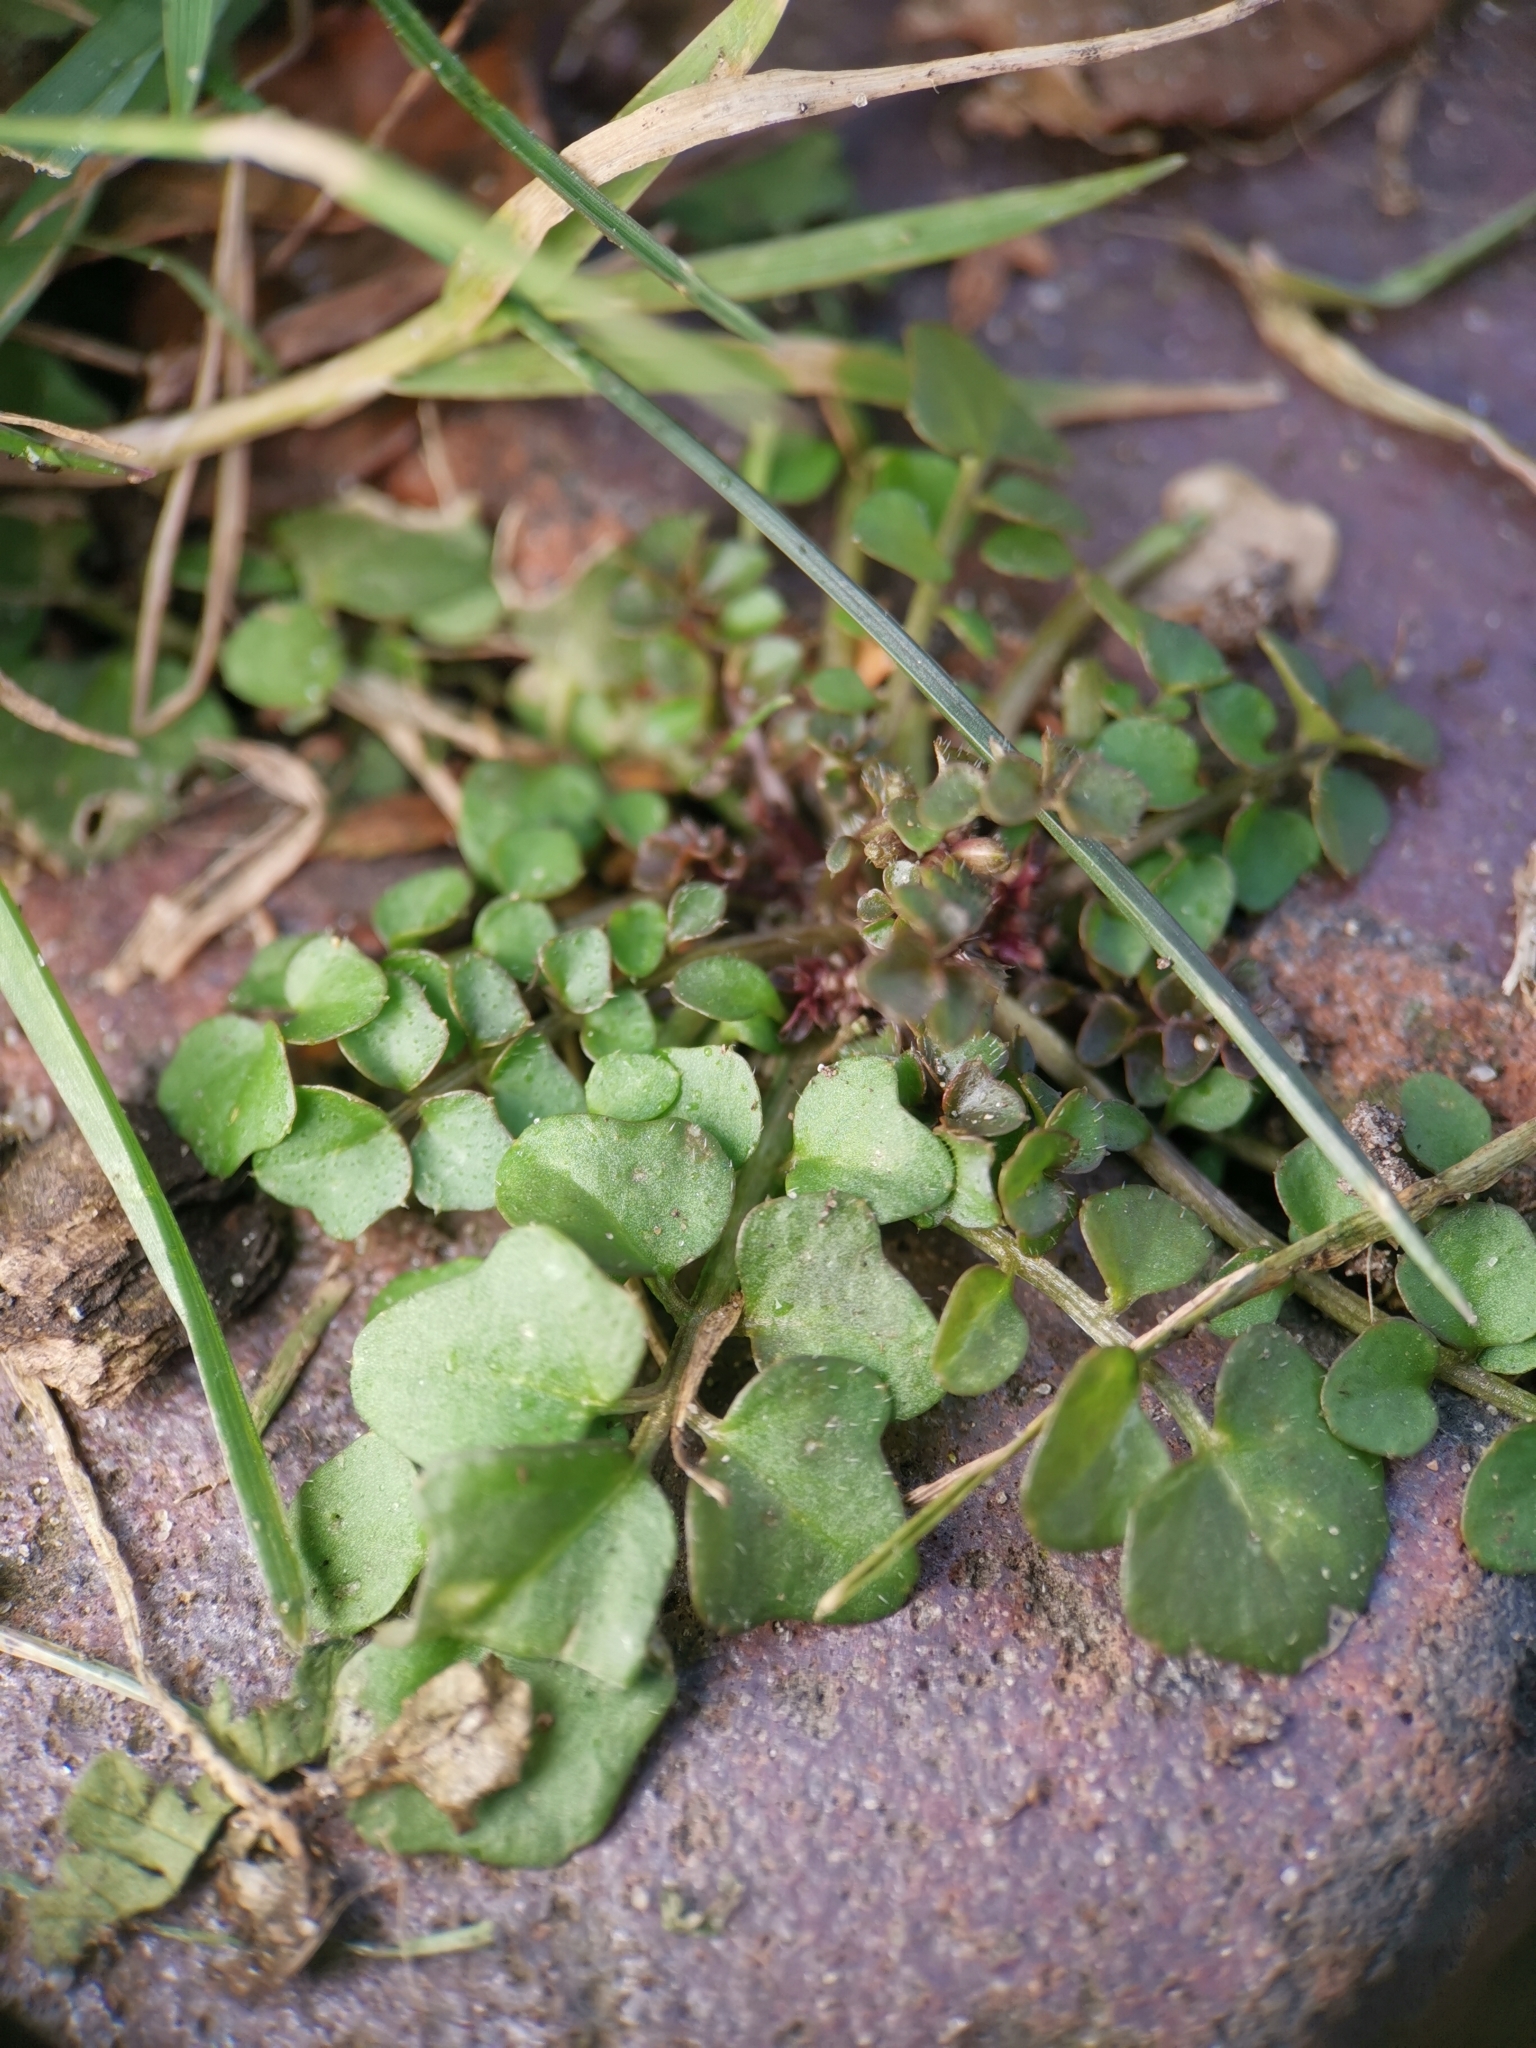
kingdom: Plantae
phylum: Tracheophyta
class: Magnoliopsida
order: Brassicales
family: Brassicaceae
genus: Cardamine
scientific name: Cardamine hirsuta
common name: Hairy bittercress
